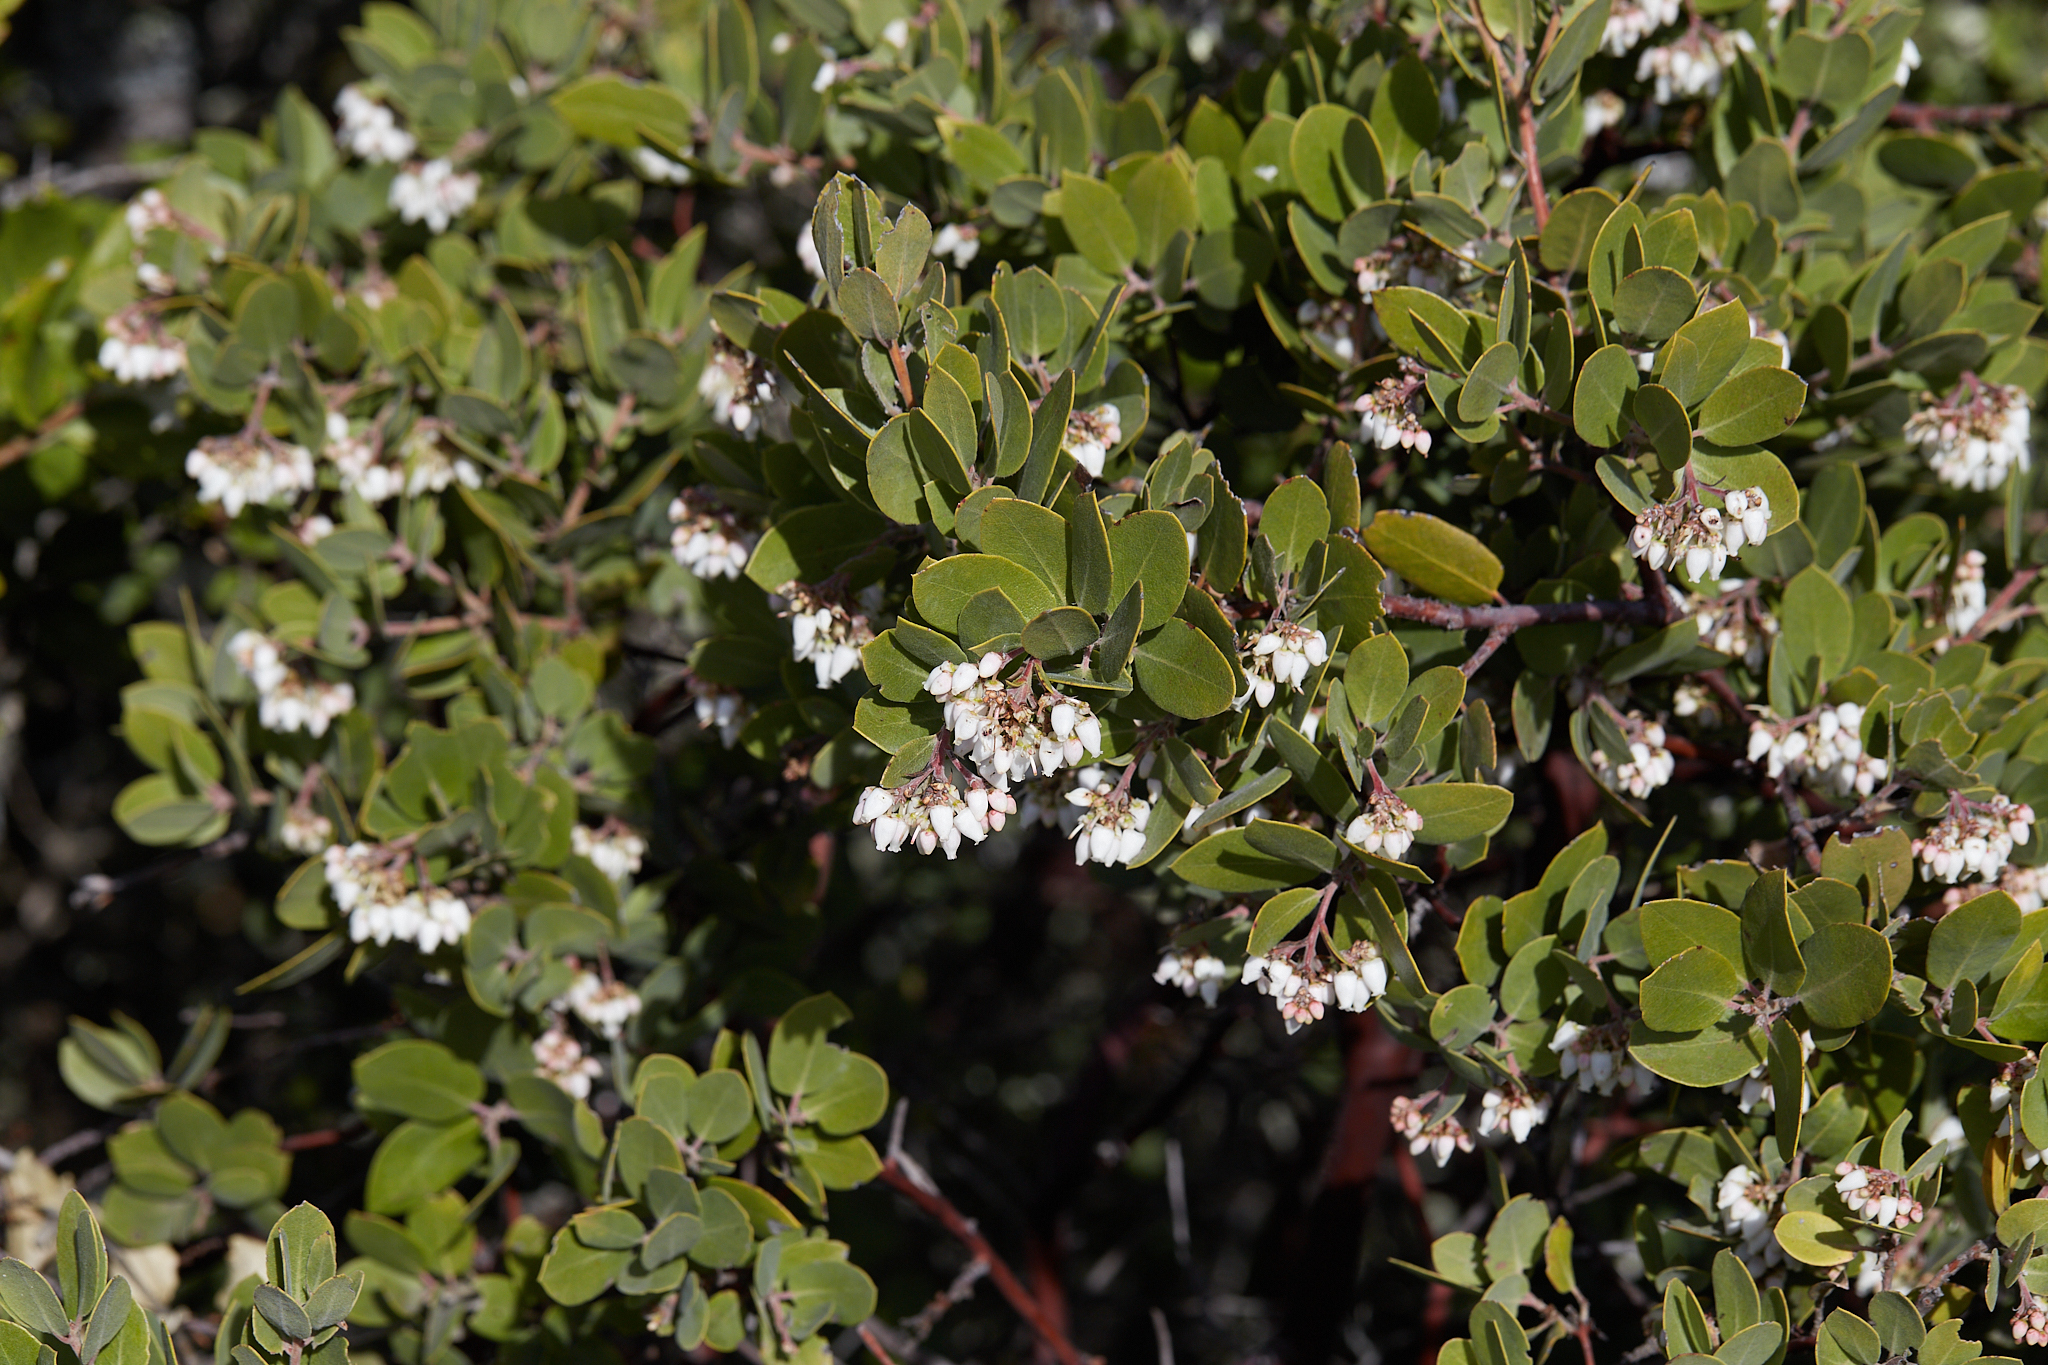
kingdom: Plantae
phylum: Tracheophyta
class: Magnoliopsida
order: Ericales
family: Ericaceae
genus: Arctostaphylos
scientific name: Arctostaphylos crustacea
